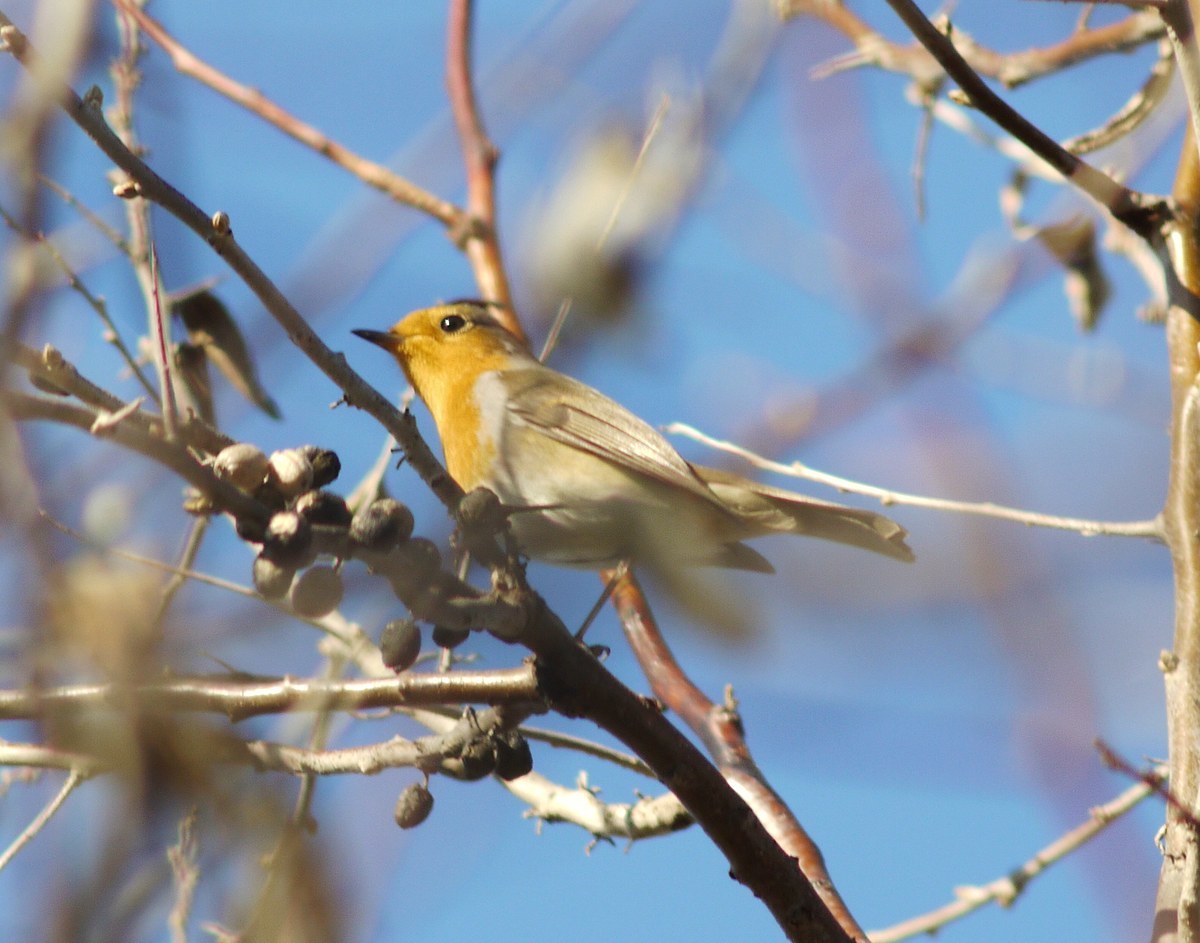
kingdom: Animalia
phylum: Chordata
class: Aves
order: Passeriformes
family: Muscicapidae
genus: Erithacus
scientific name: Erithacus rubecula
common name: European robin
